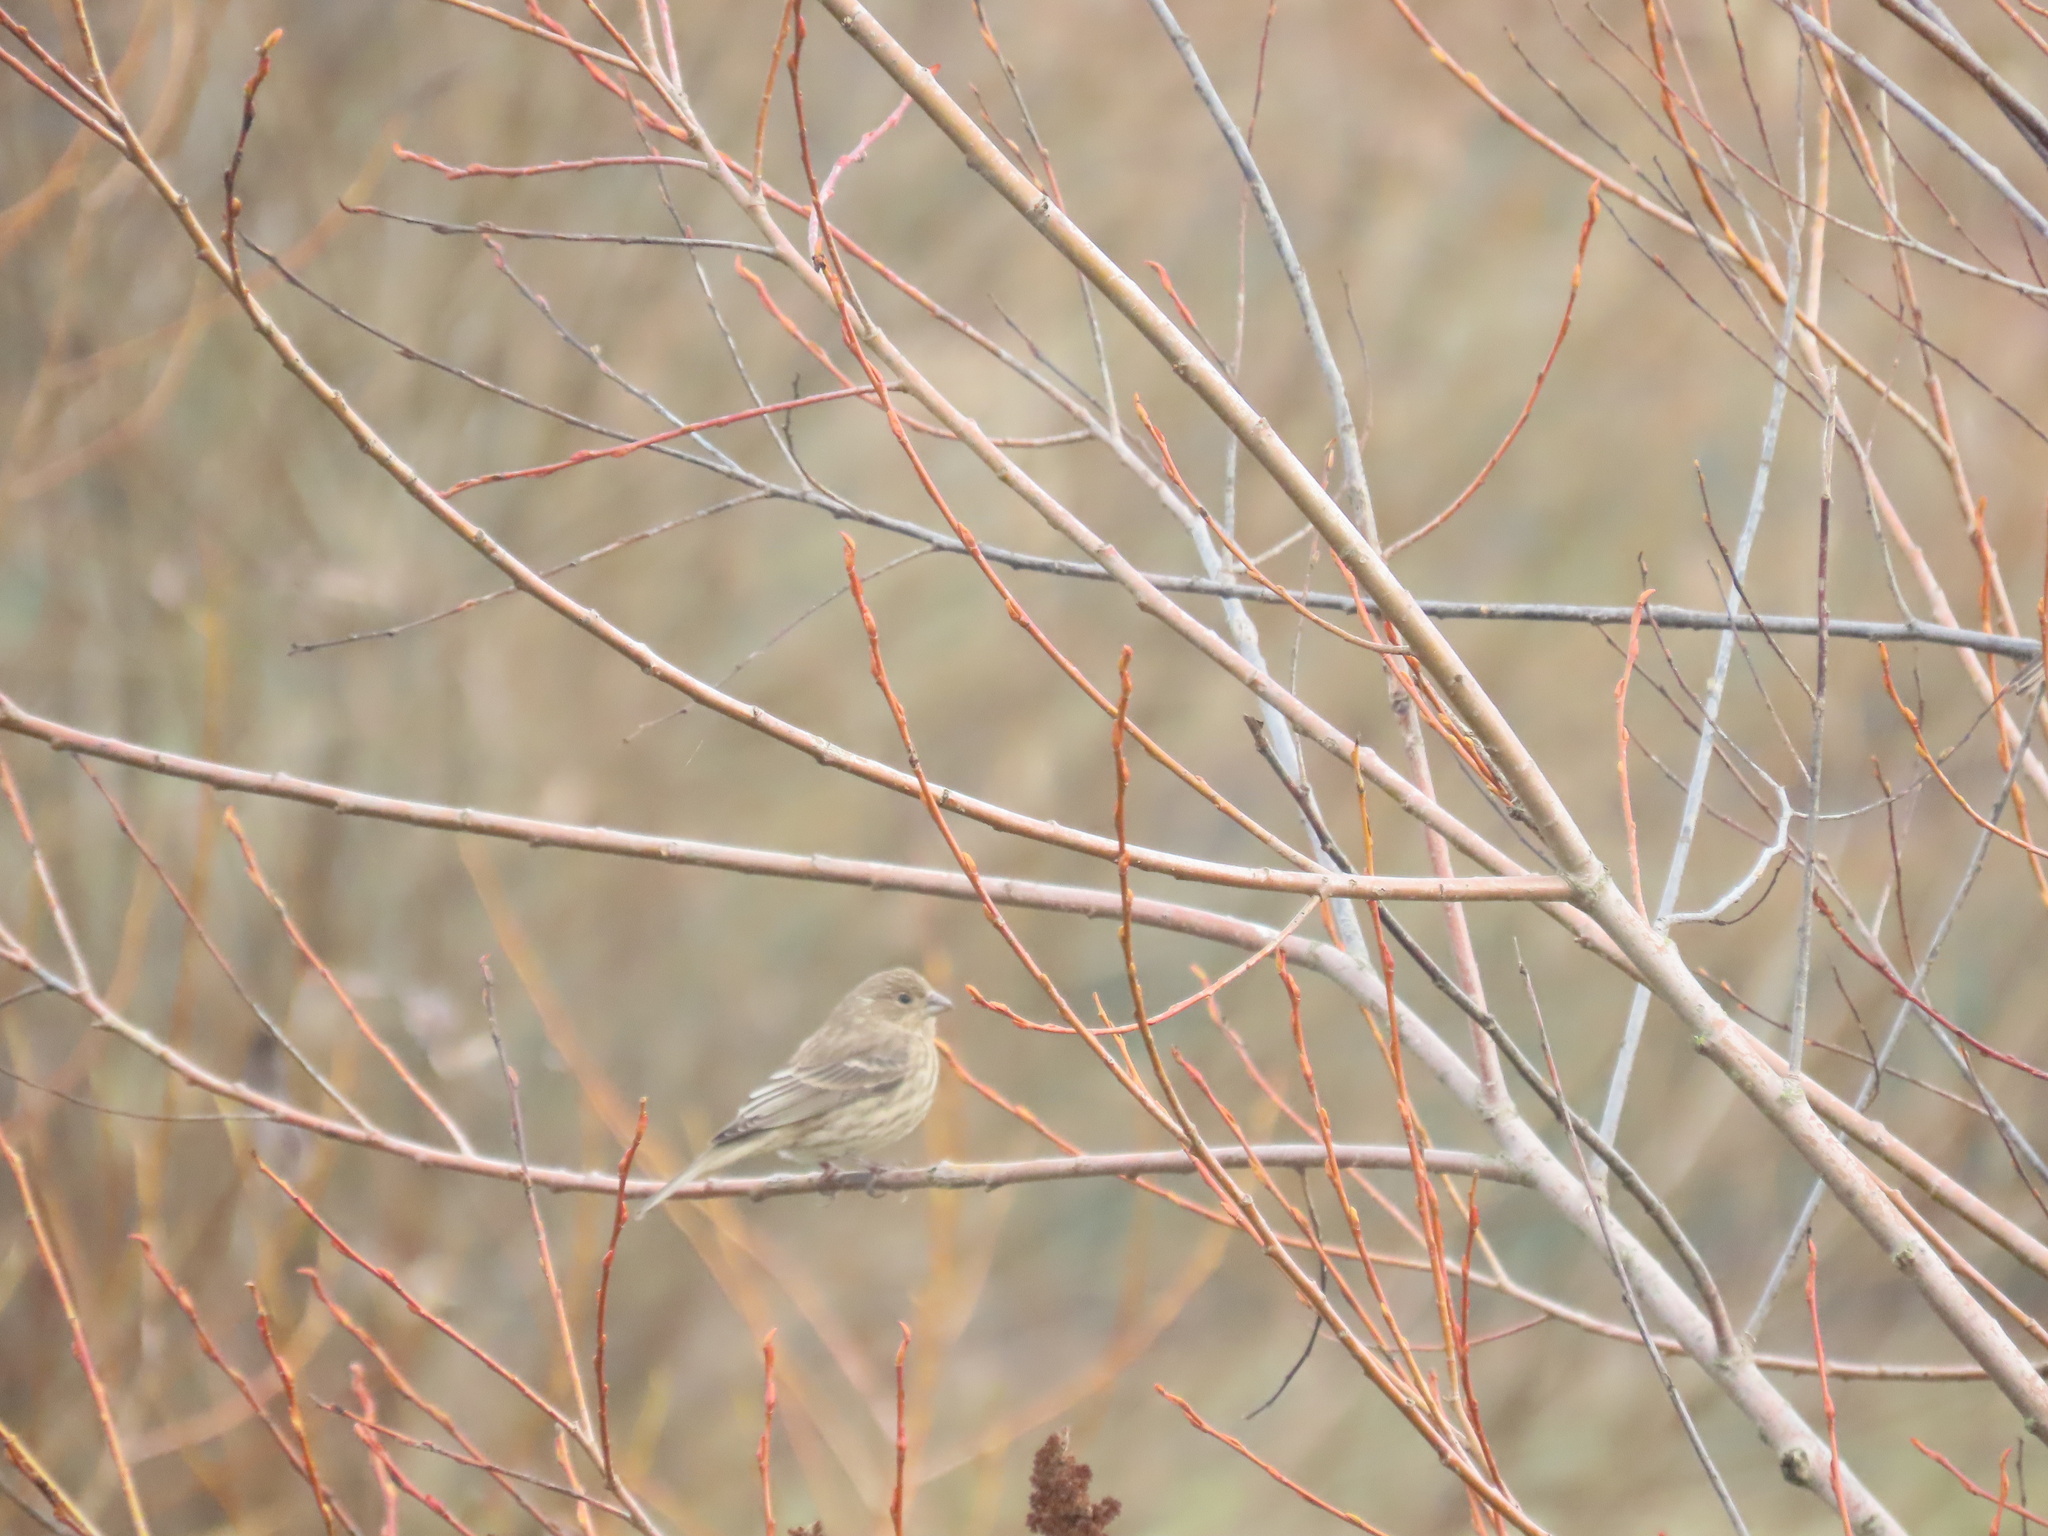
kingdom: Animalia
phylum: Chordata
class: Aves
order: Passeriformes
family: Fringillidae
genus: Haemorhous
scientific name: Haemorhous mexicanus
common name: House finch
